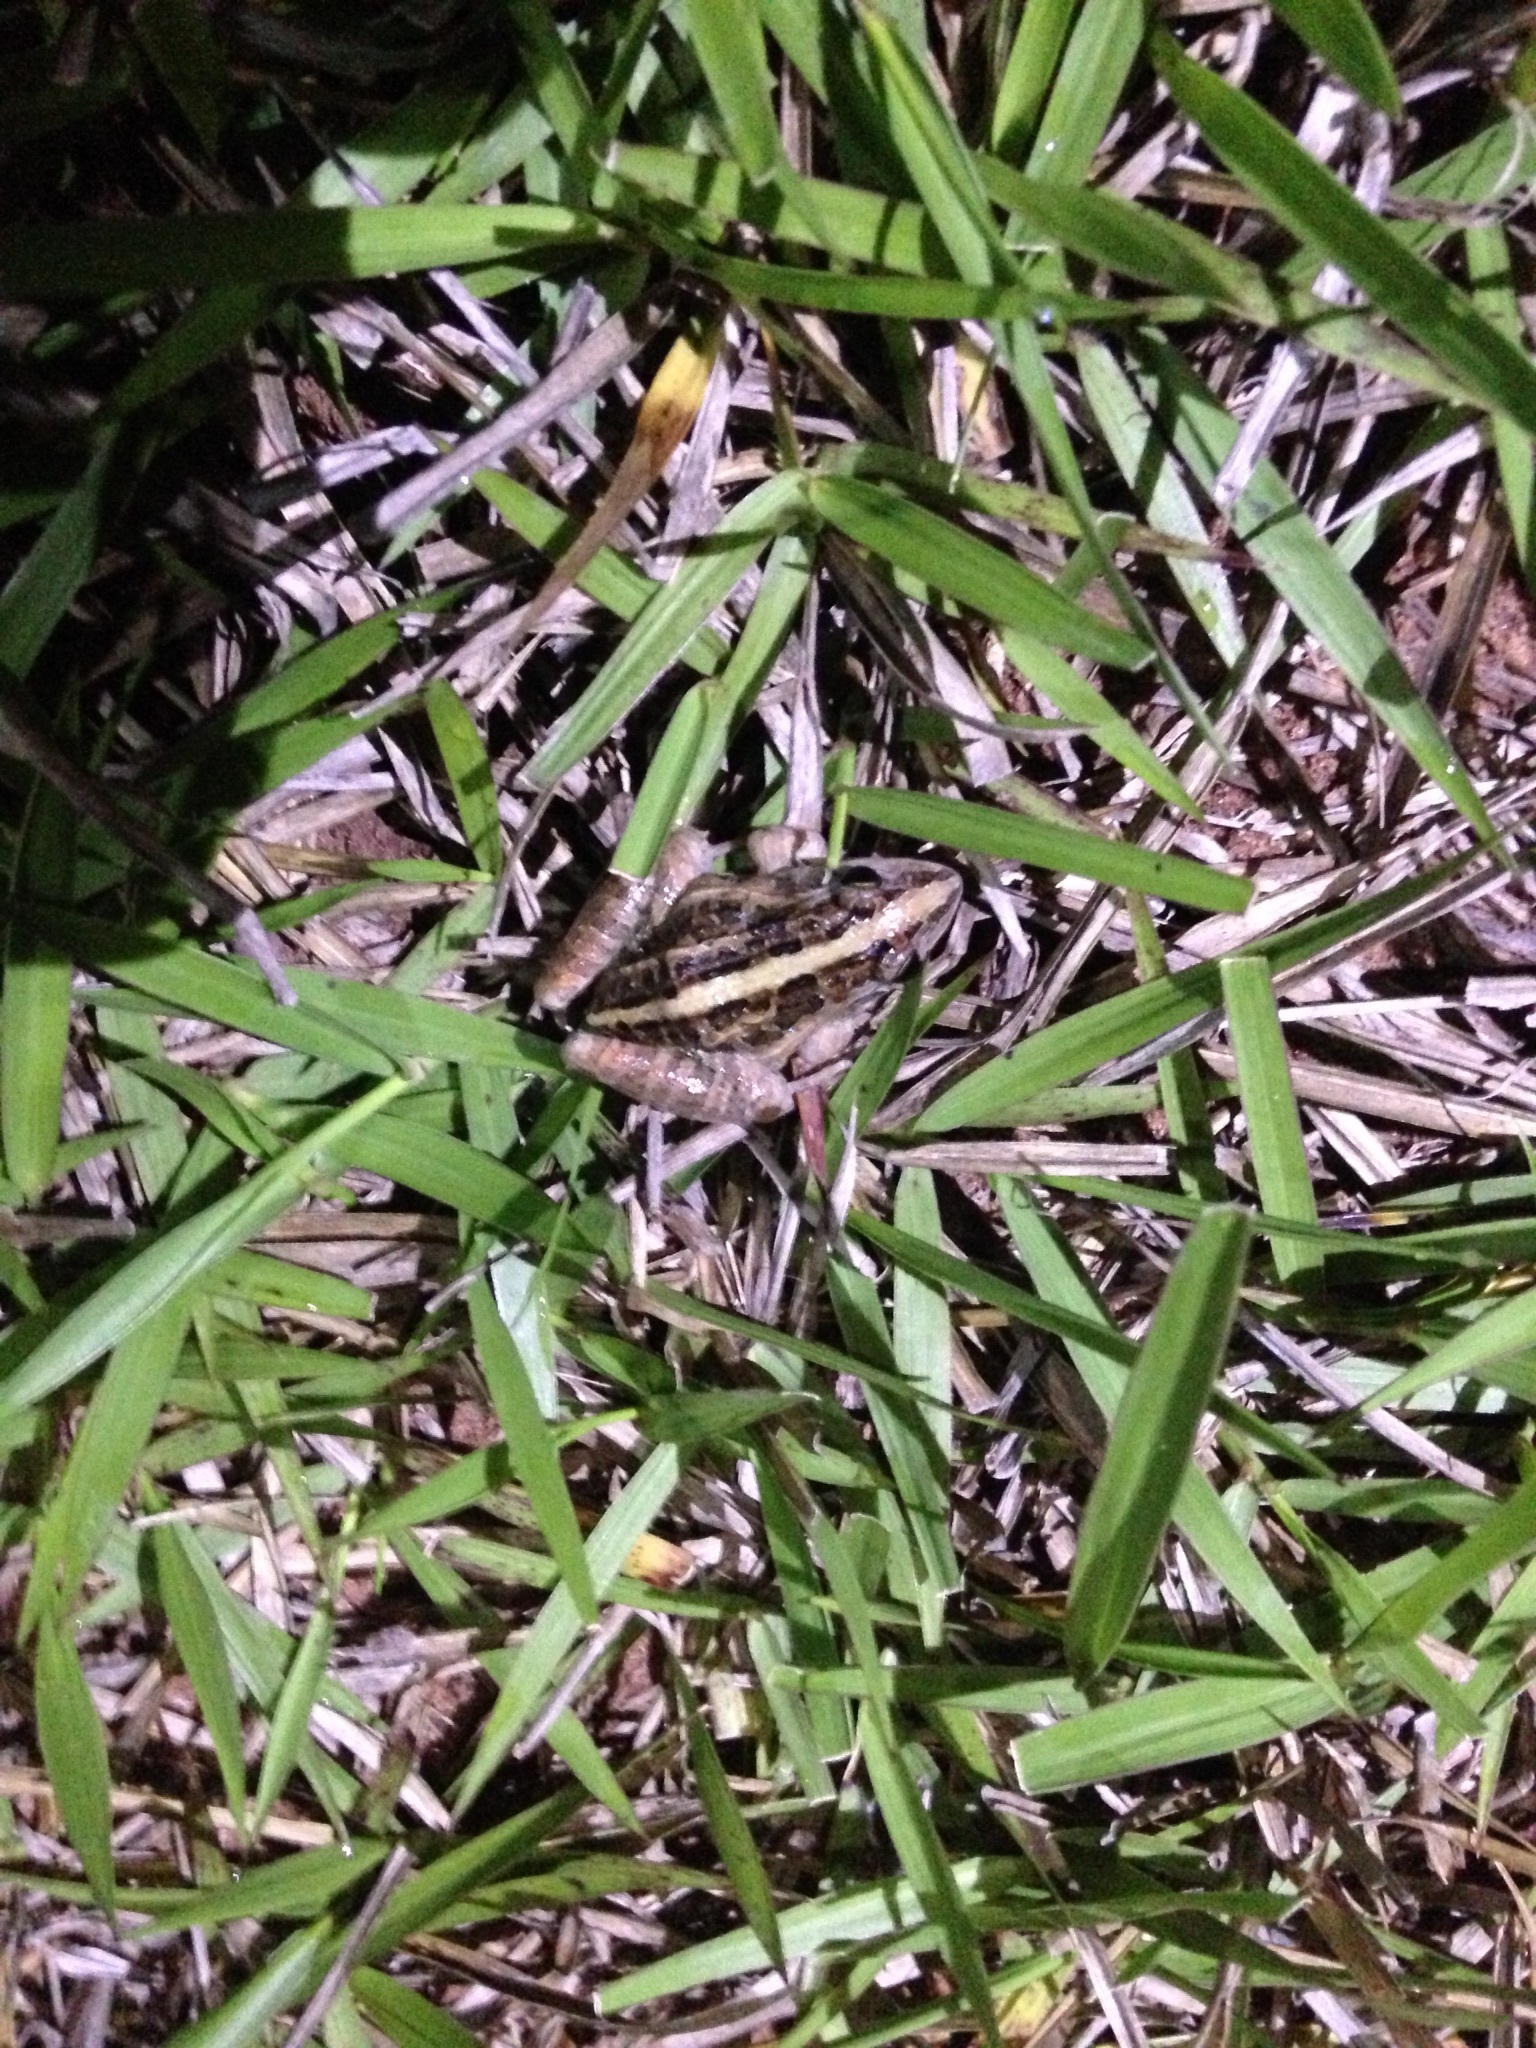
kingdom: Animalia
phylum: Chordata
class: Amphibia
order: Anura
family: Leptodactylidae
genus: Leptodactylus
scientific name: Leptodactylus fuscus
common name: Rufous frog
